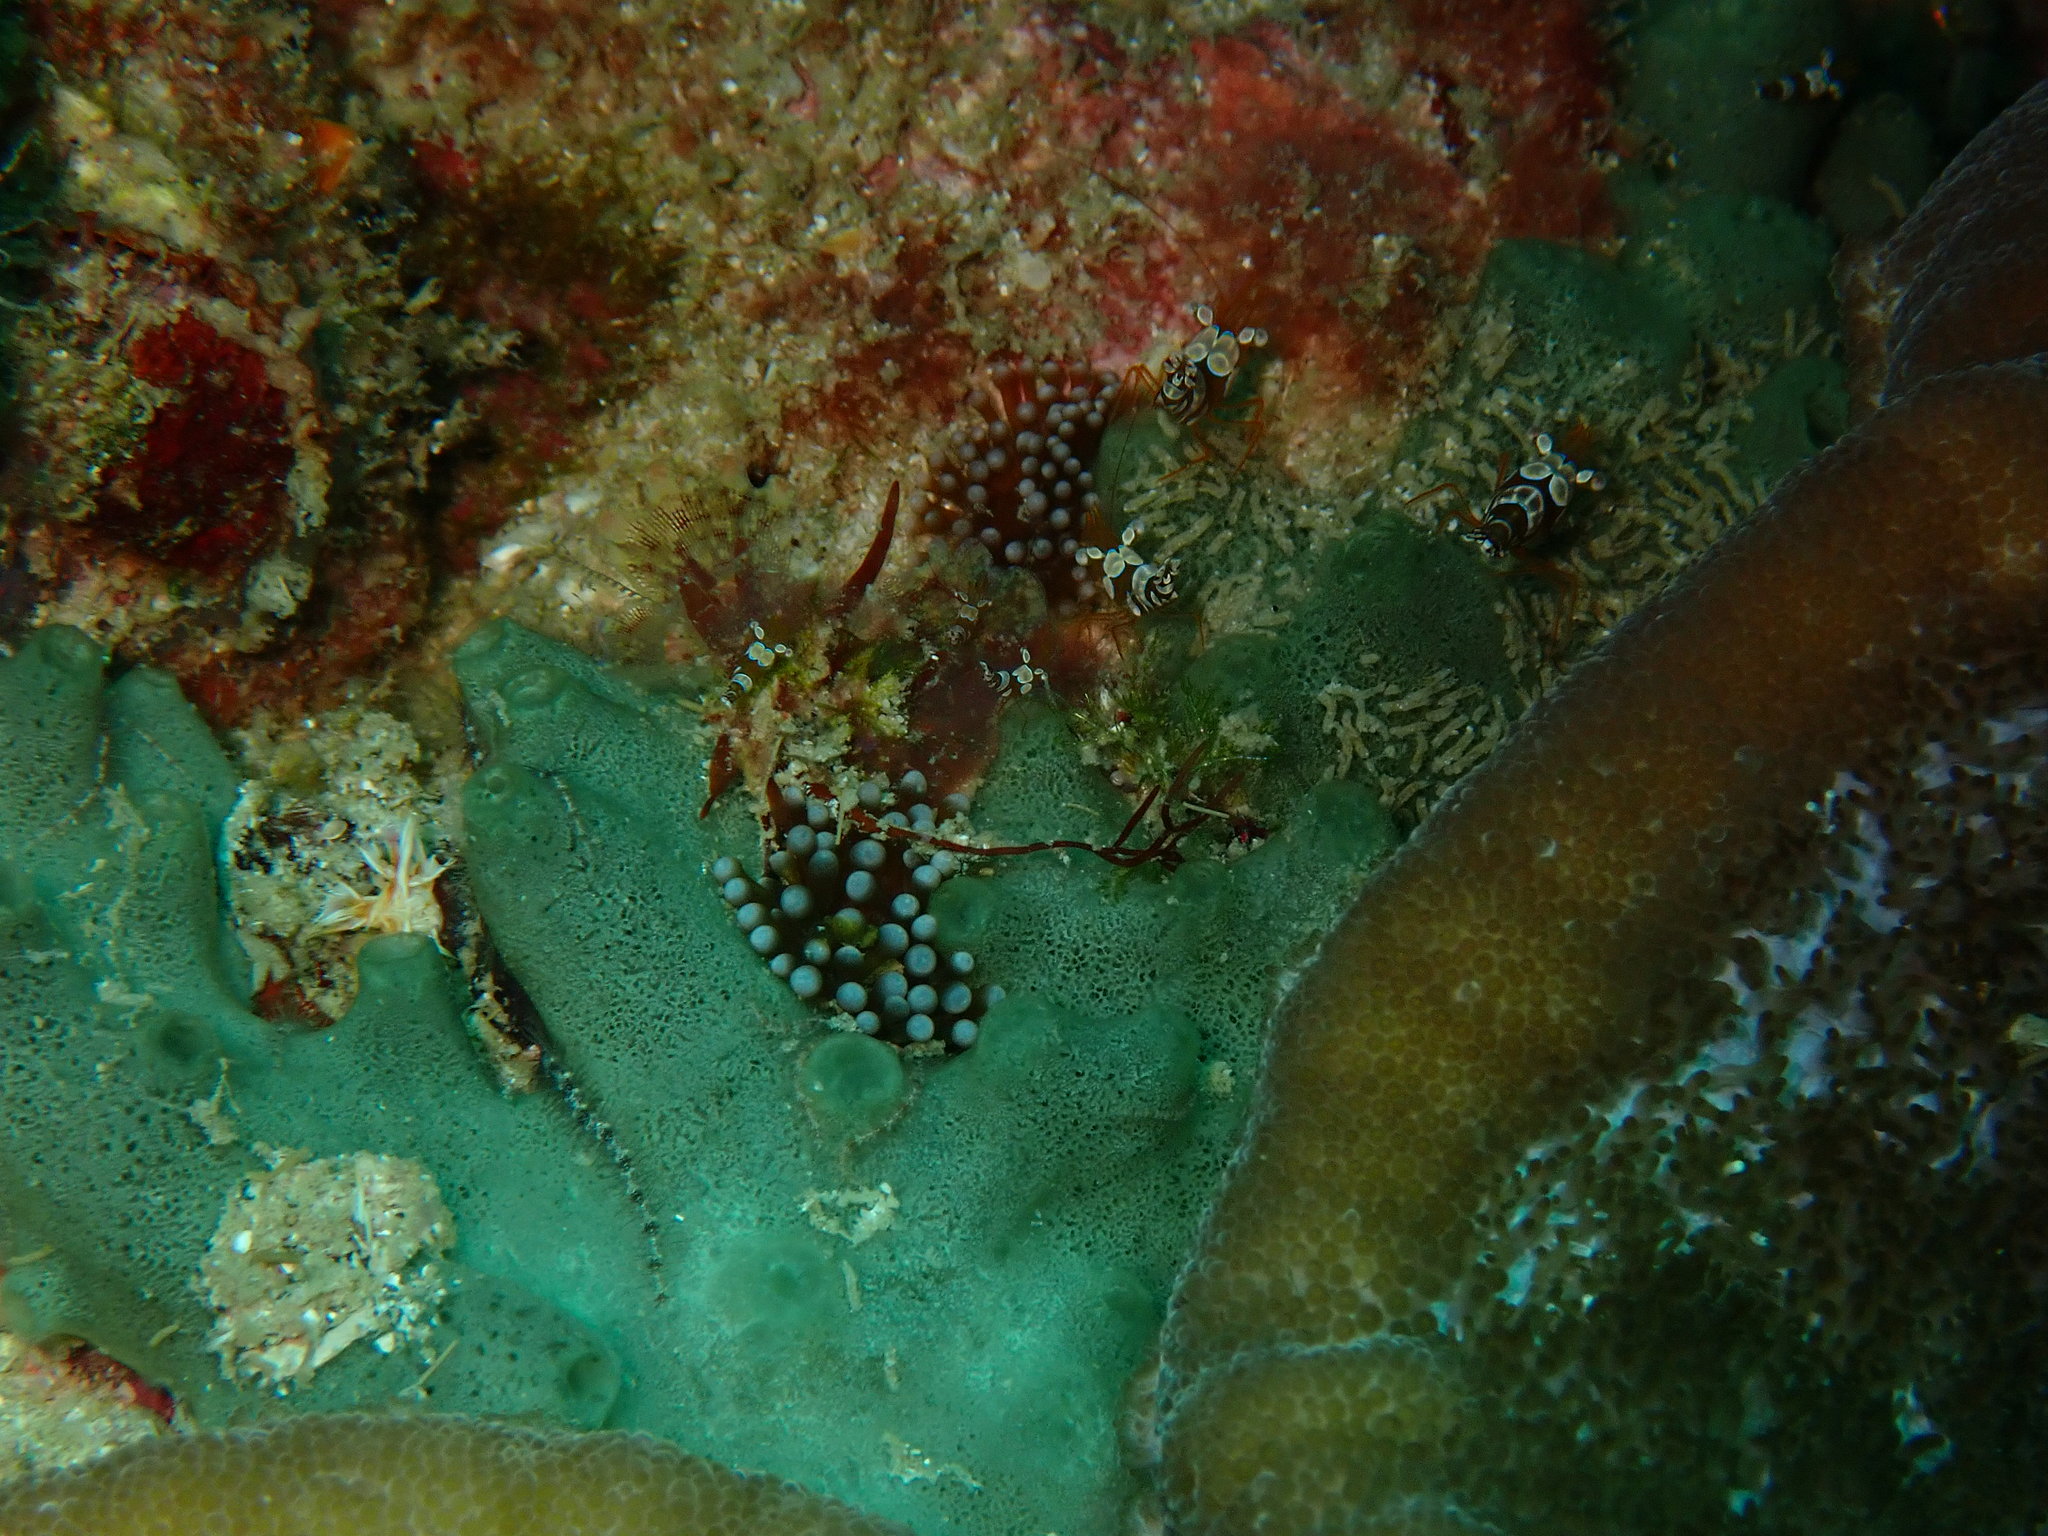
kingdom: Animalia
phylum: Cnidaria
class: Anthozoa
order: Actiniaria
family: Actiniidae
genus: Mesactinia
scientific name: Mesactinia ganensis
